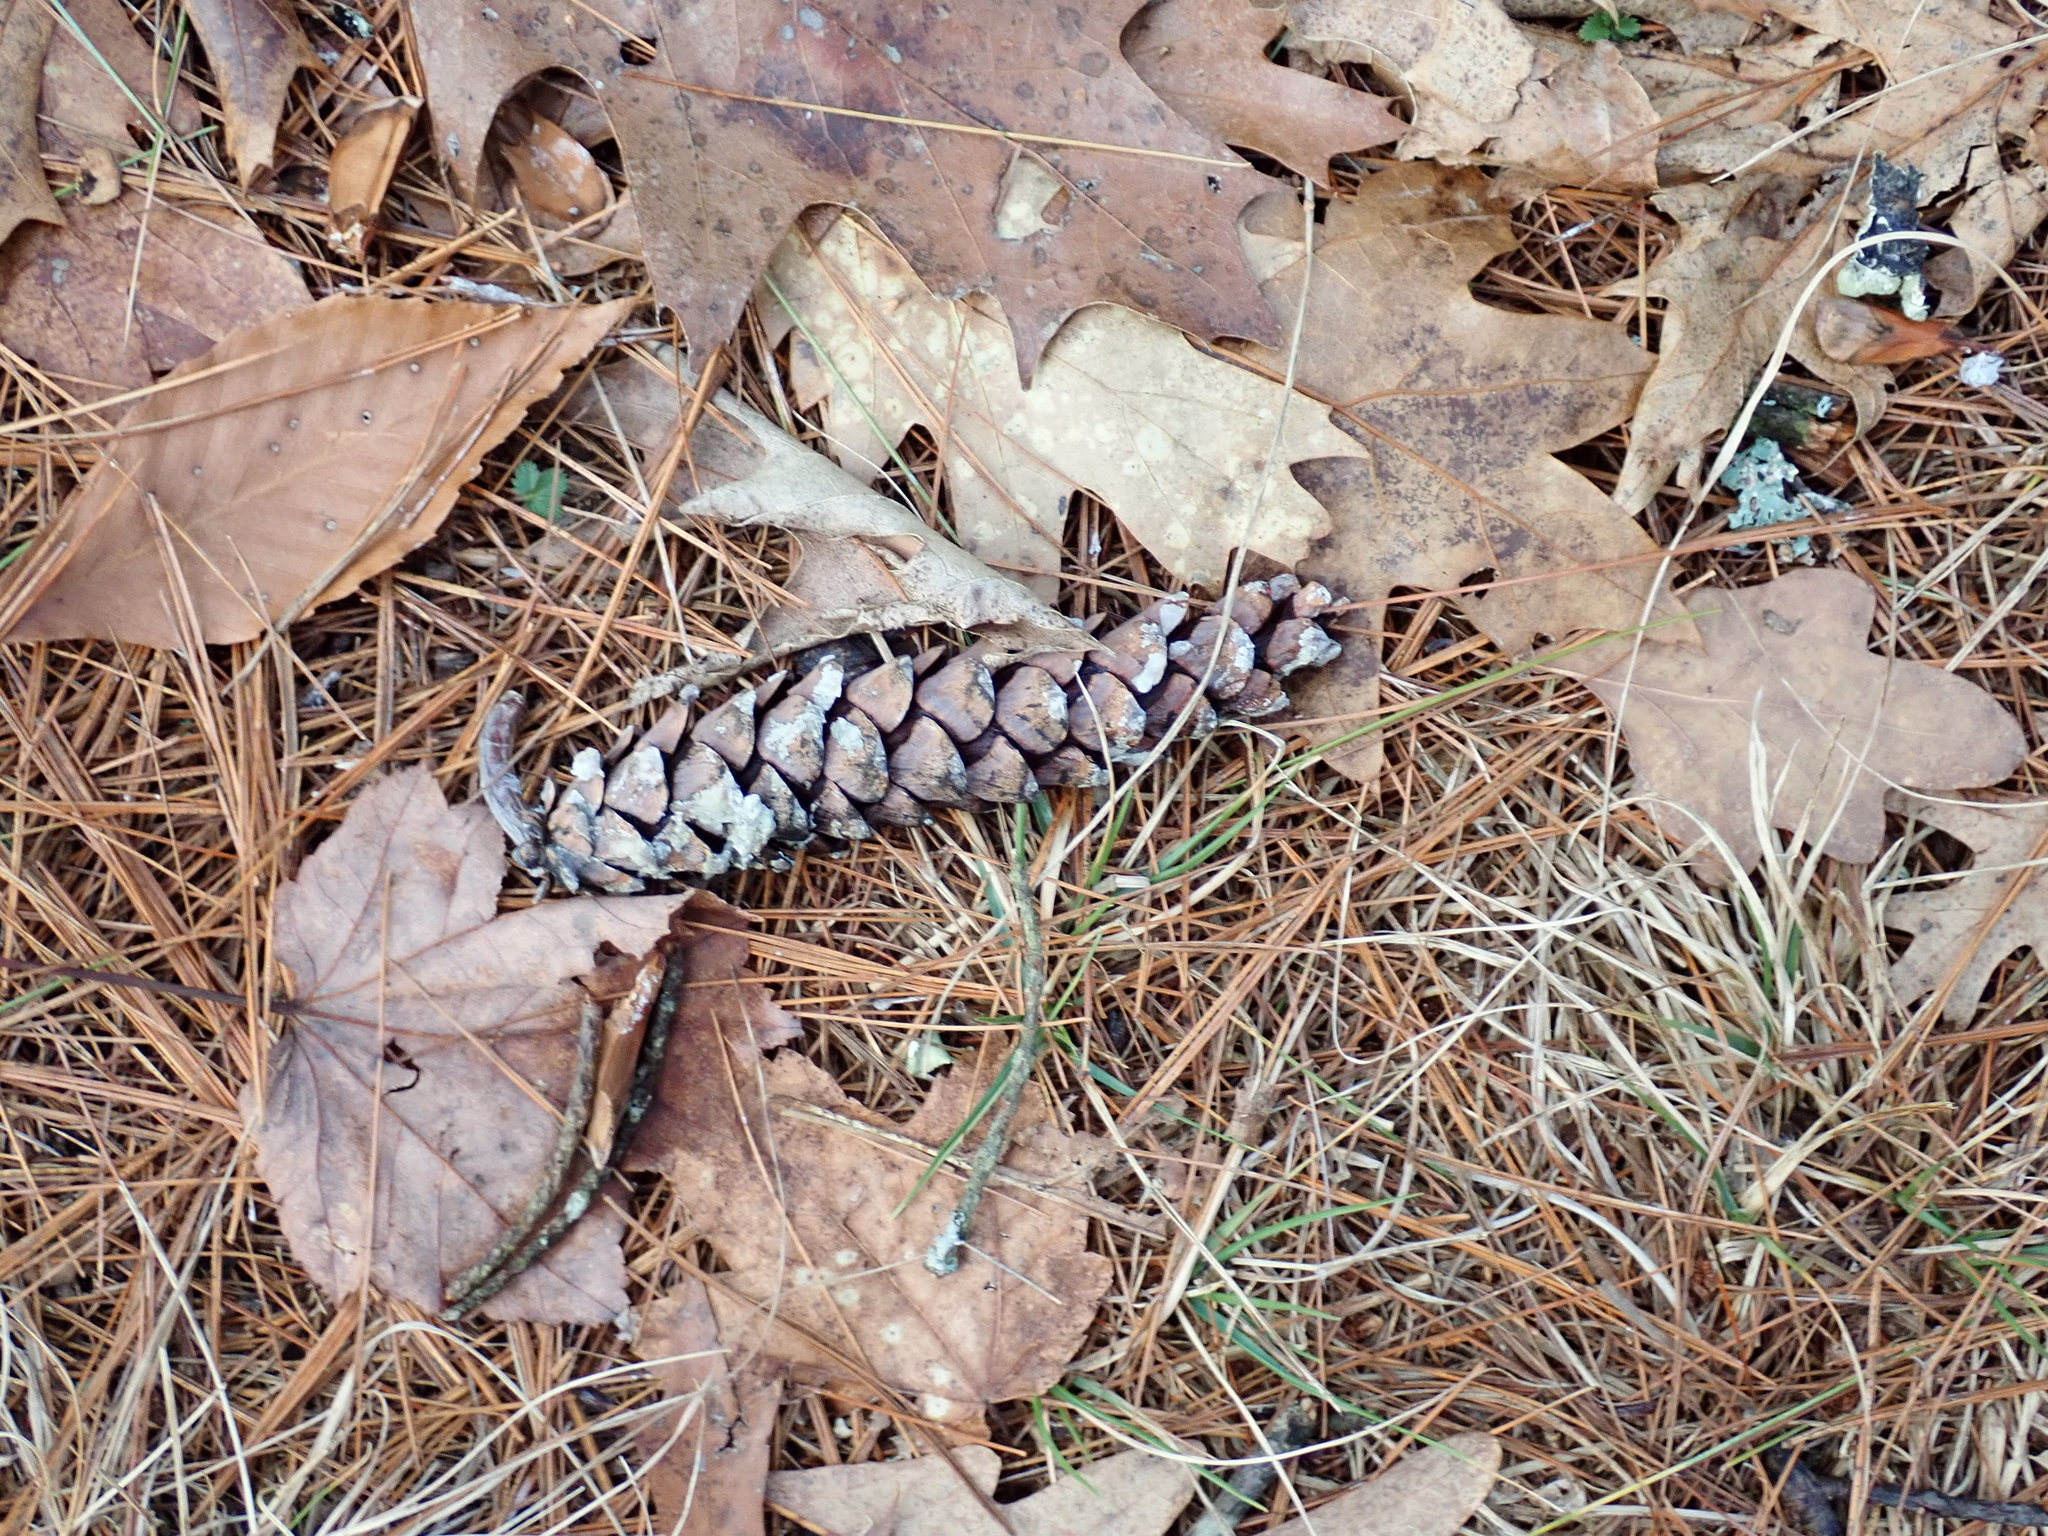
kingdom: Plantae
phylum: Tracheophyta
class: Pinopsida
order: Pinales
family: Pinaceae
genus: Pinus
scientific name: Pinus strobus
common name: Weymouth pine
